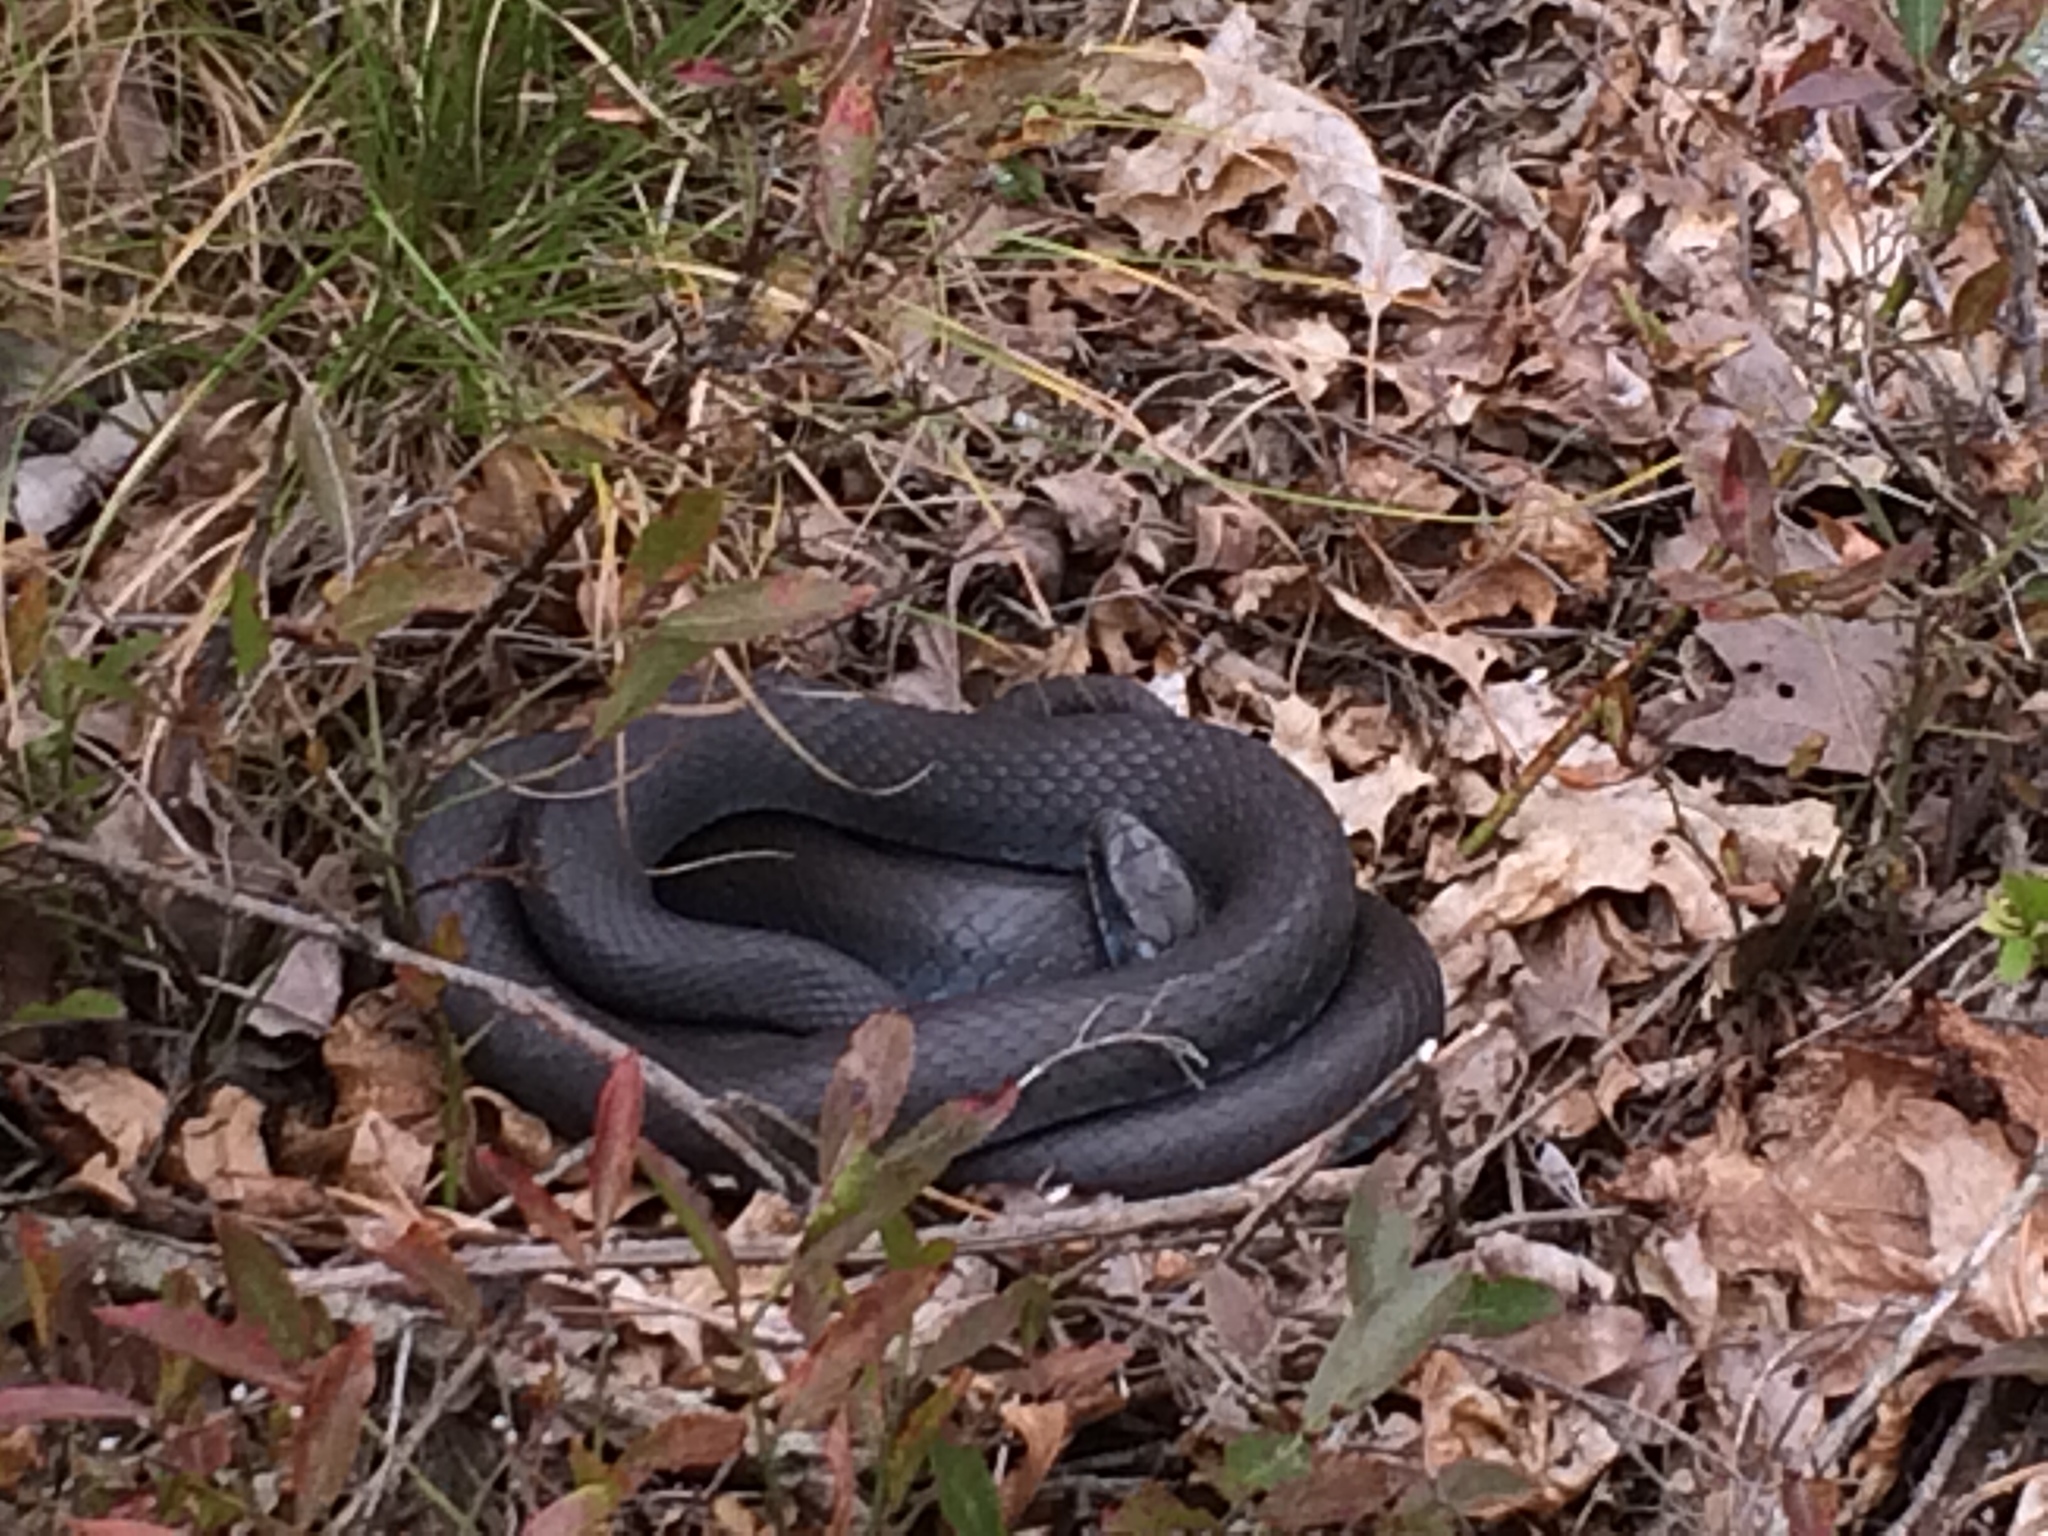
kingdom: Animalia
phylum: Chordata
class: Squamata
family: Colubridae
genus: Coluber
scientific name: Coluber constrictor
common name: Eastern racer
